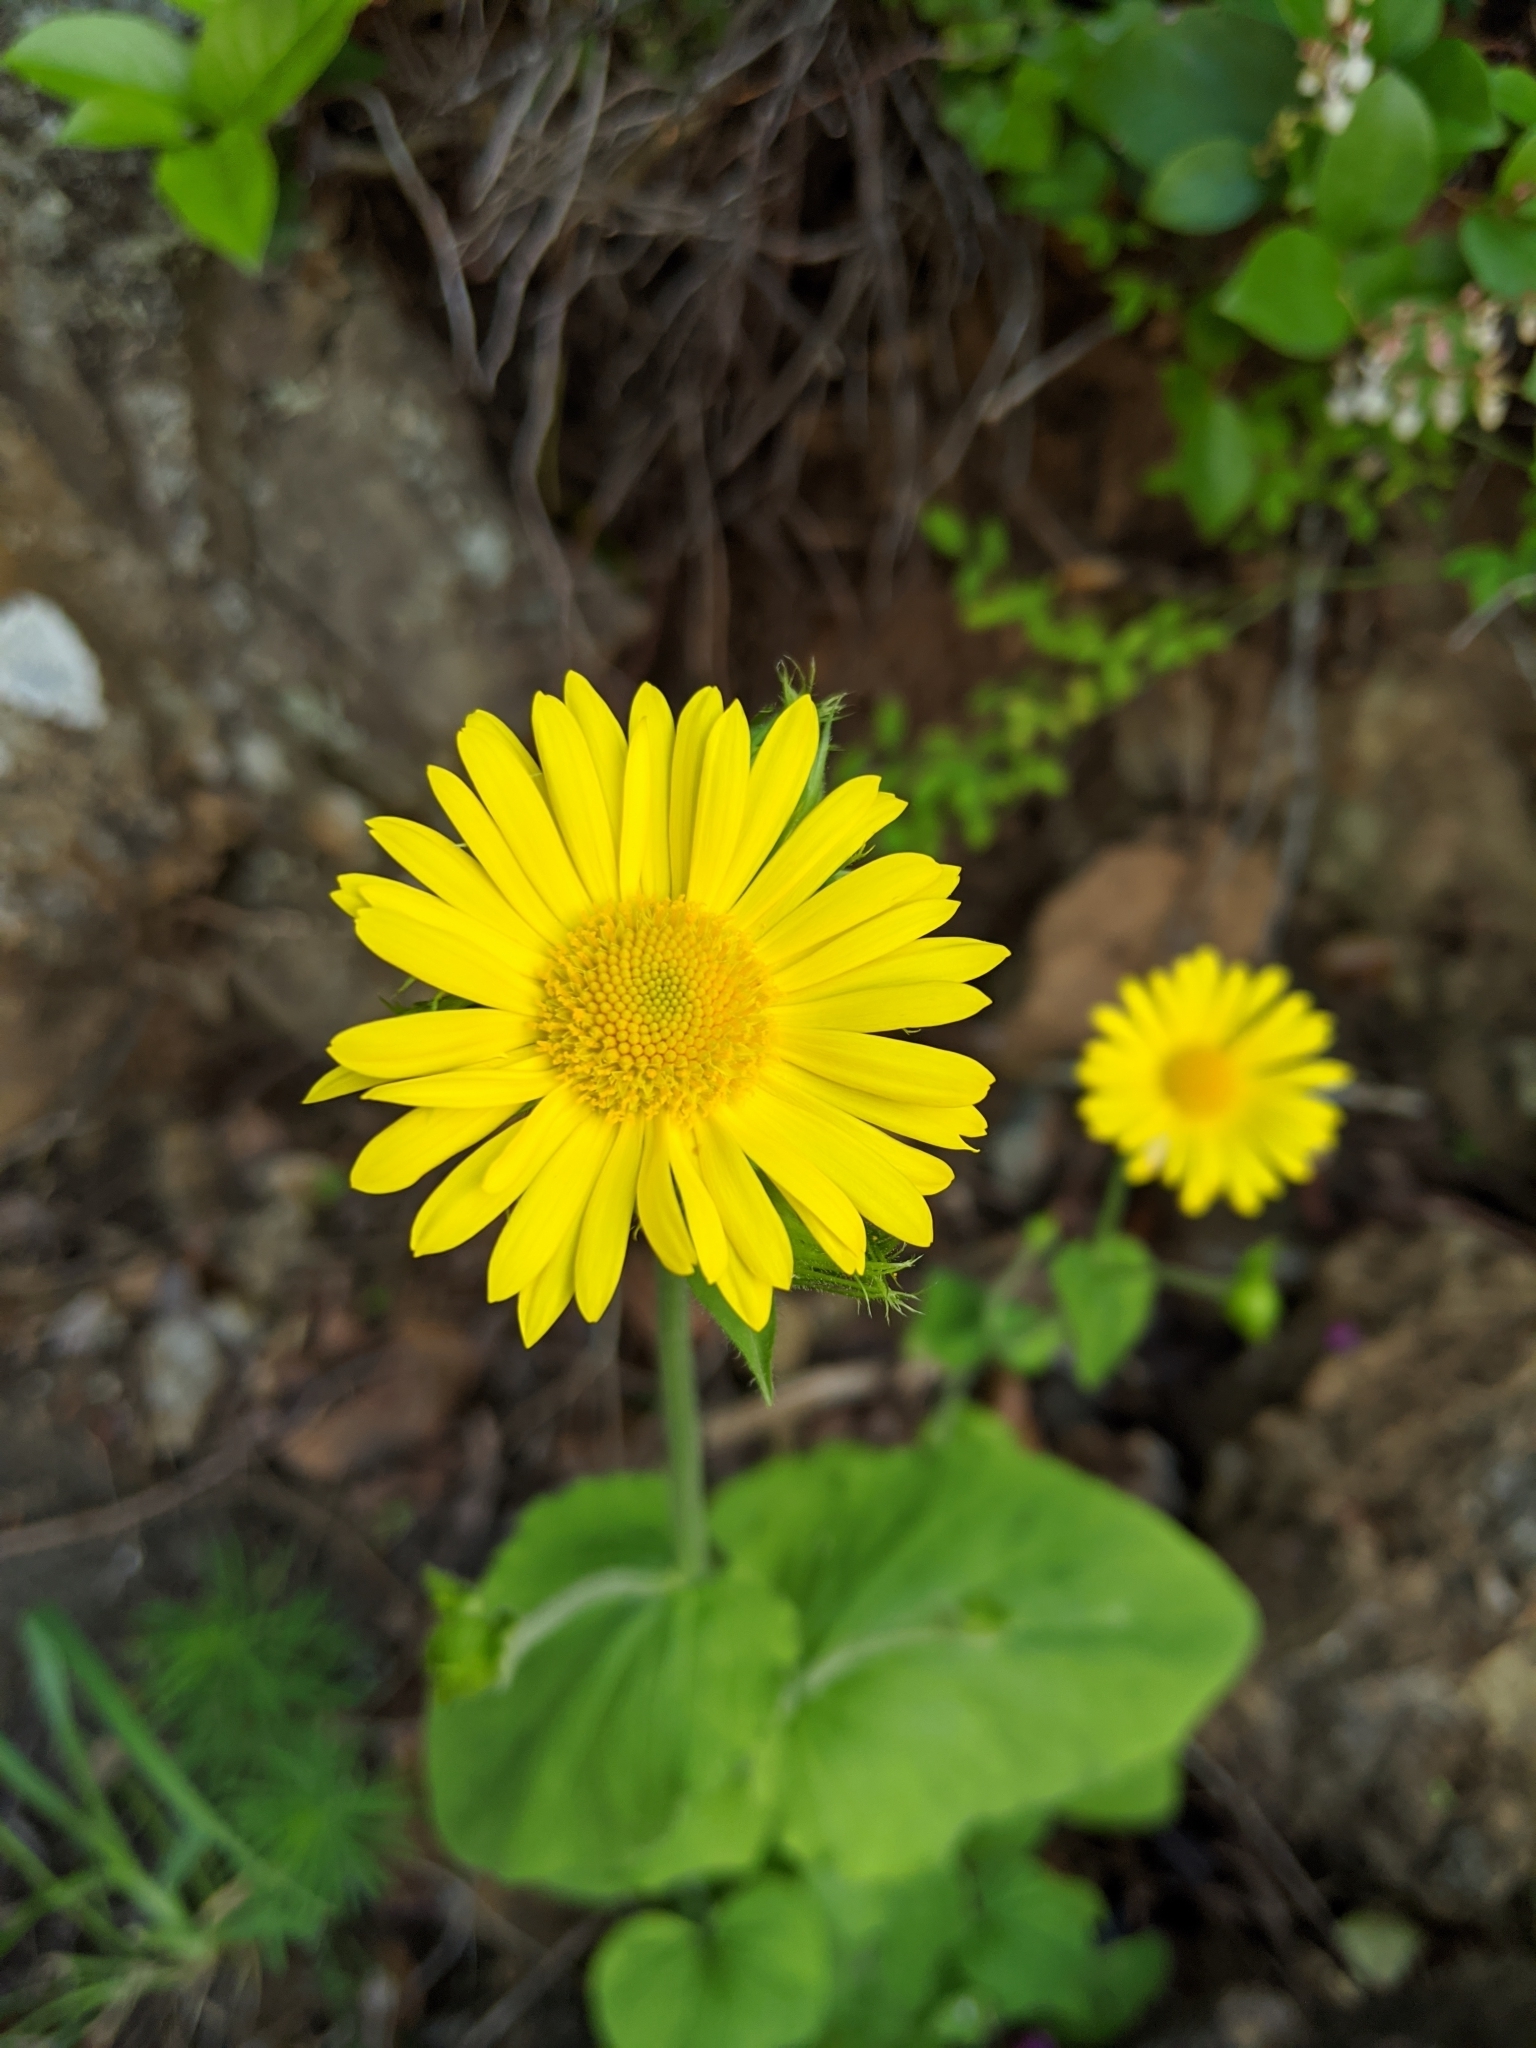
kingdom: Plantae
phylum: Tracheophyta
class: Magnoliopsida
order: Asterales
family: Asteraceae
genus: Doronicum
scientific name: Doronicum pardalianches
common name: Leopard's-bane
